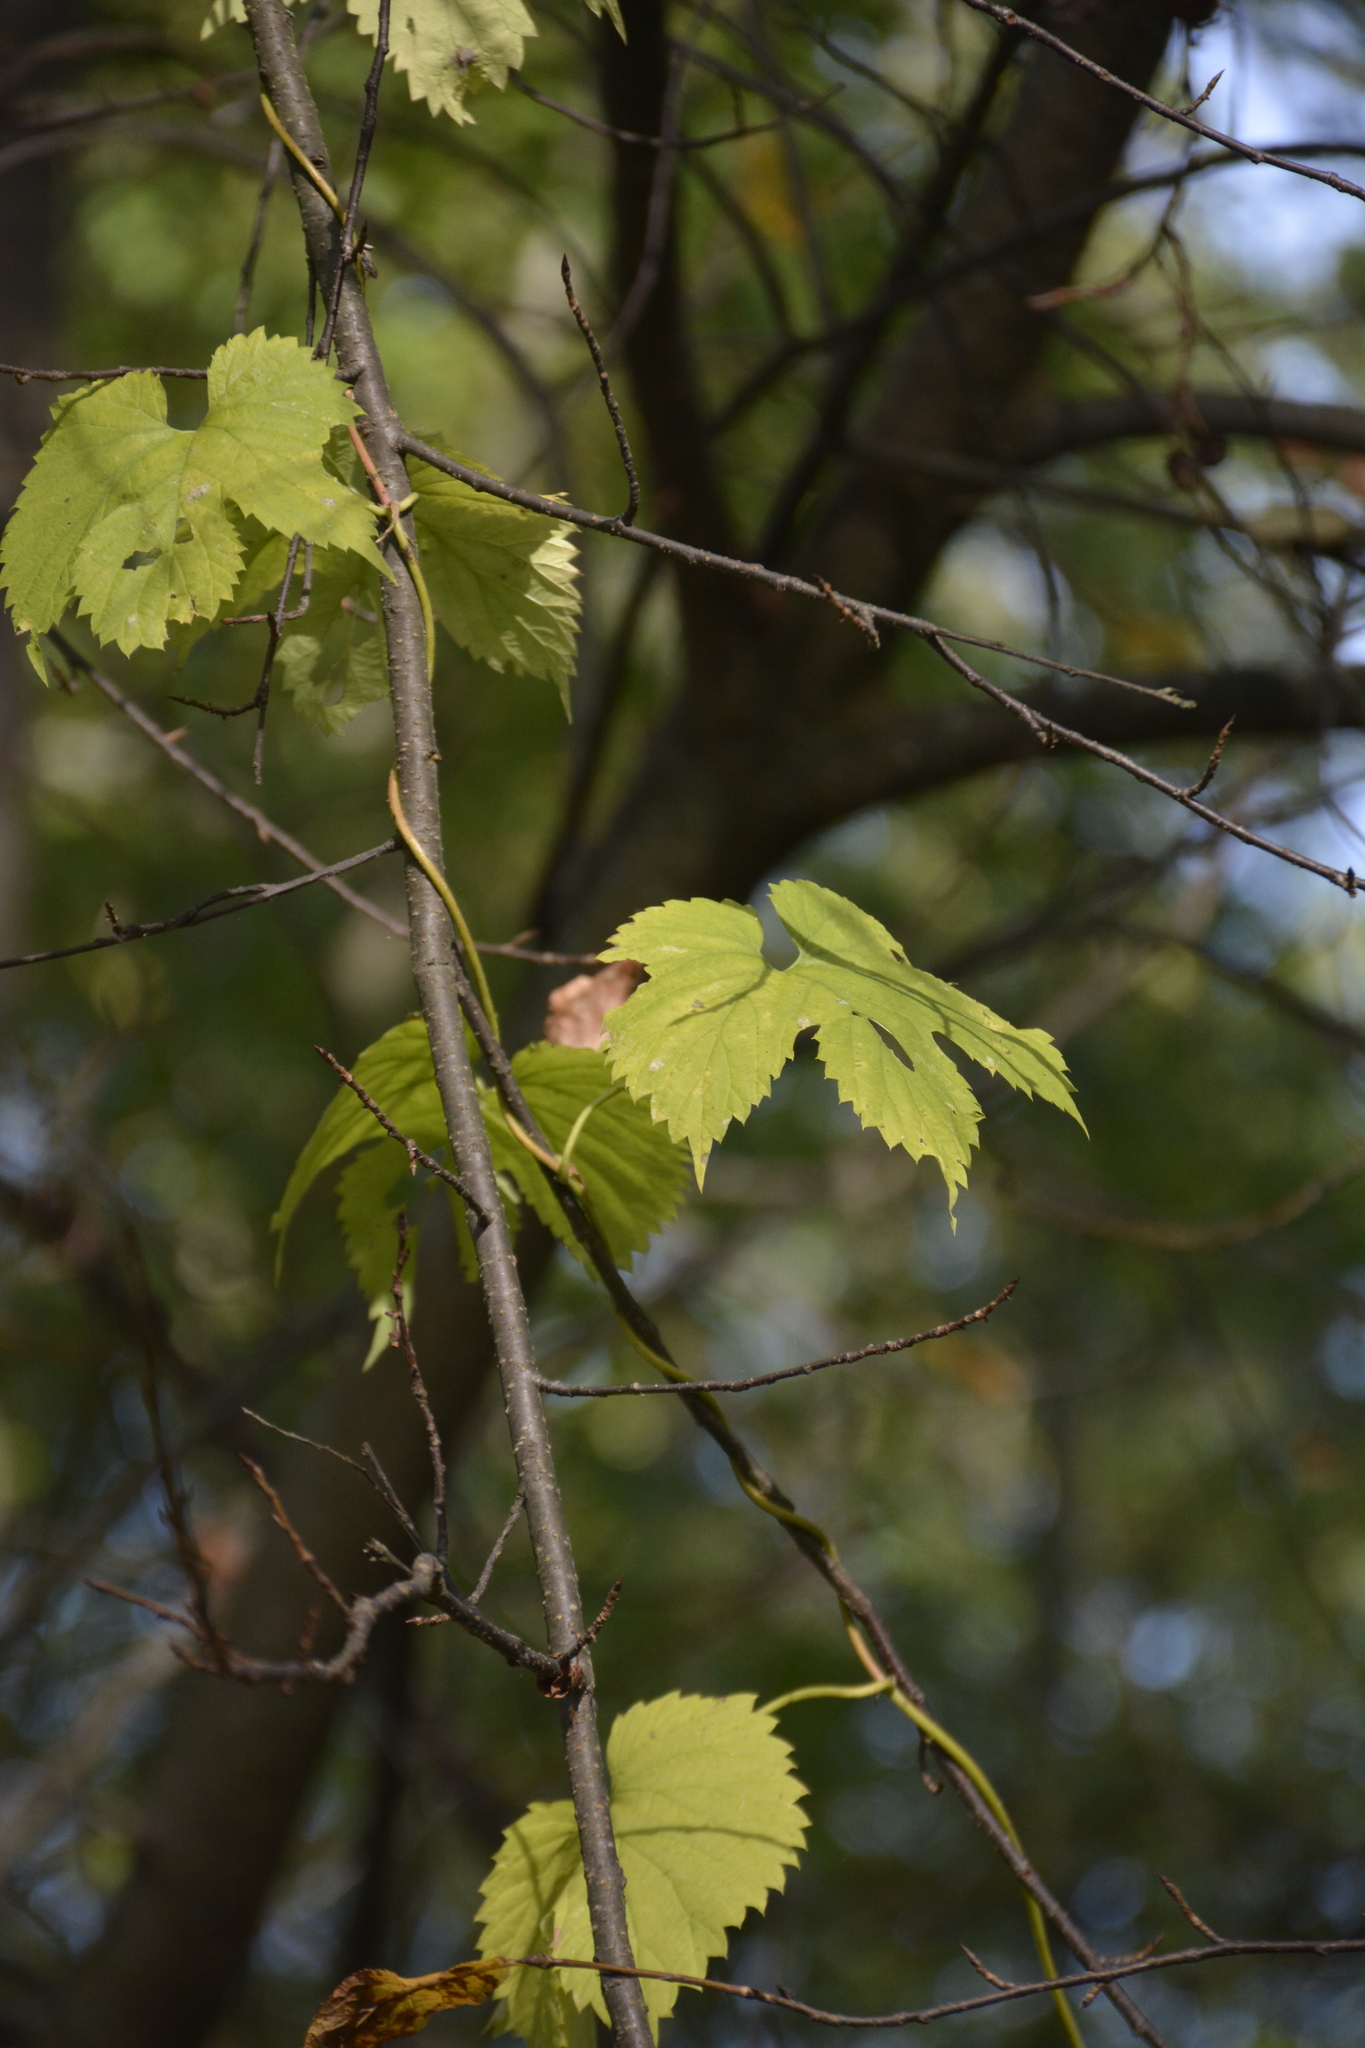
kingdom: Plantae
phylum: Tracheophyta
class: Magnoliopsida
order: Rosales
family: Cannabaceae
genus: Humulus
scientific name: Humulus lupulus
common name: Hop
